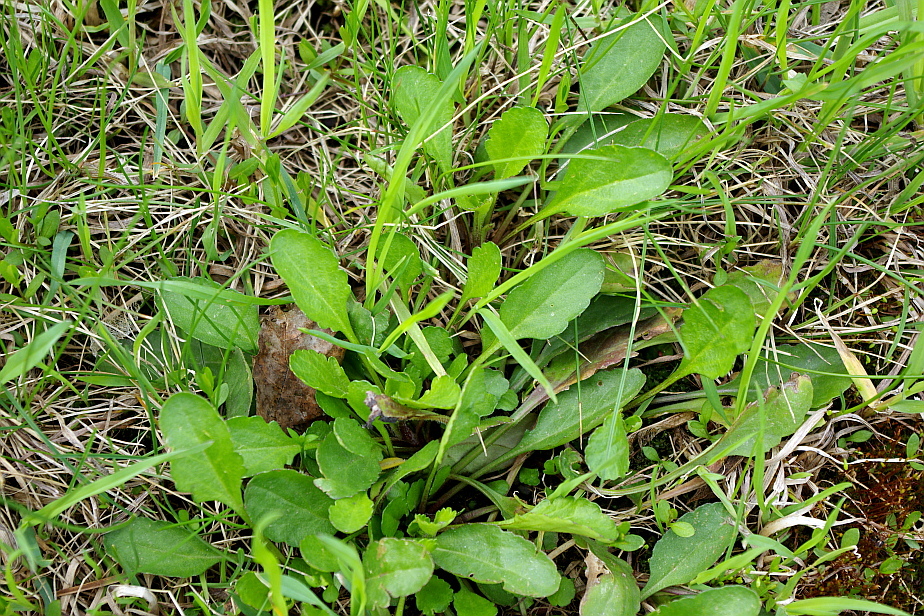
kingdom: Plantae
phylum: Tracheophyta
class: Magnoliopsida
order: Asterales
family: Asteraceae
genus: Leucanthemum
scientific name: Leucanthemum vulgare
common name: Oxeye daisy
